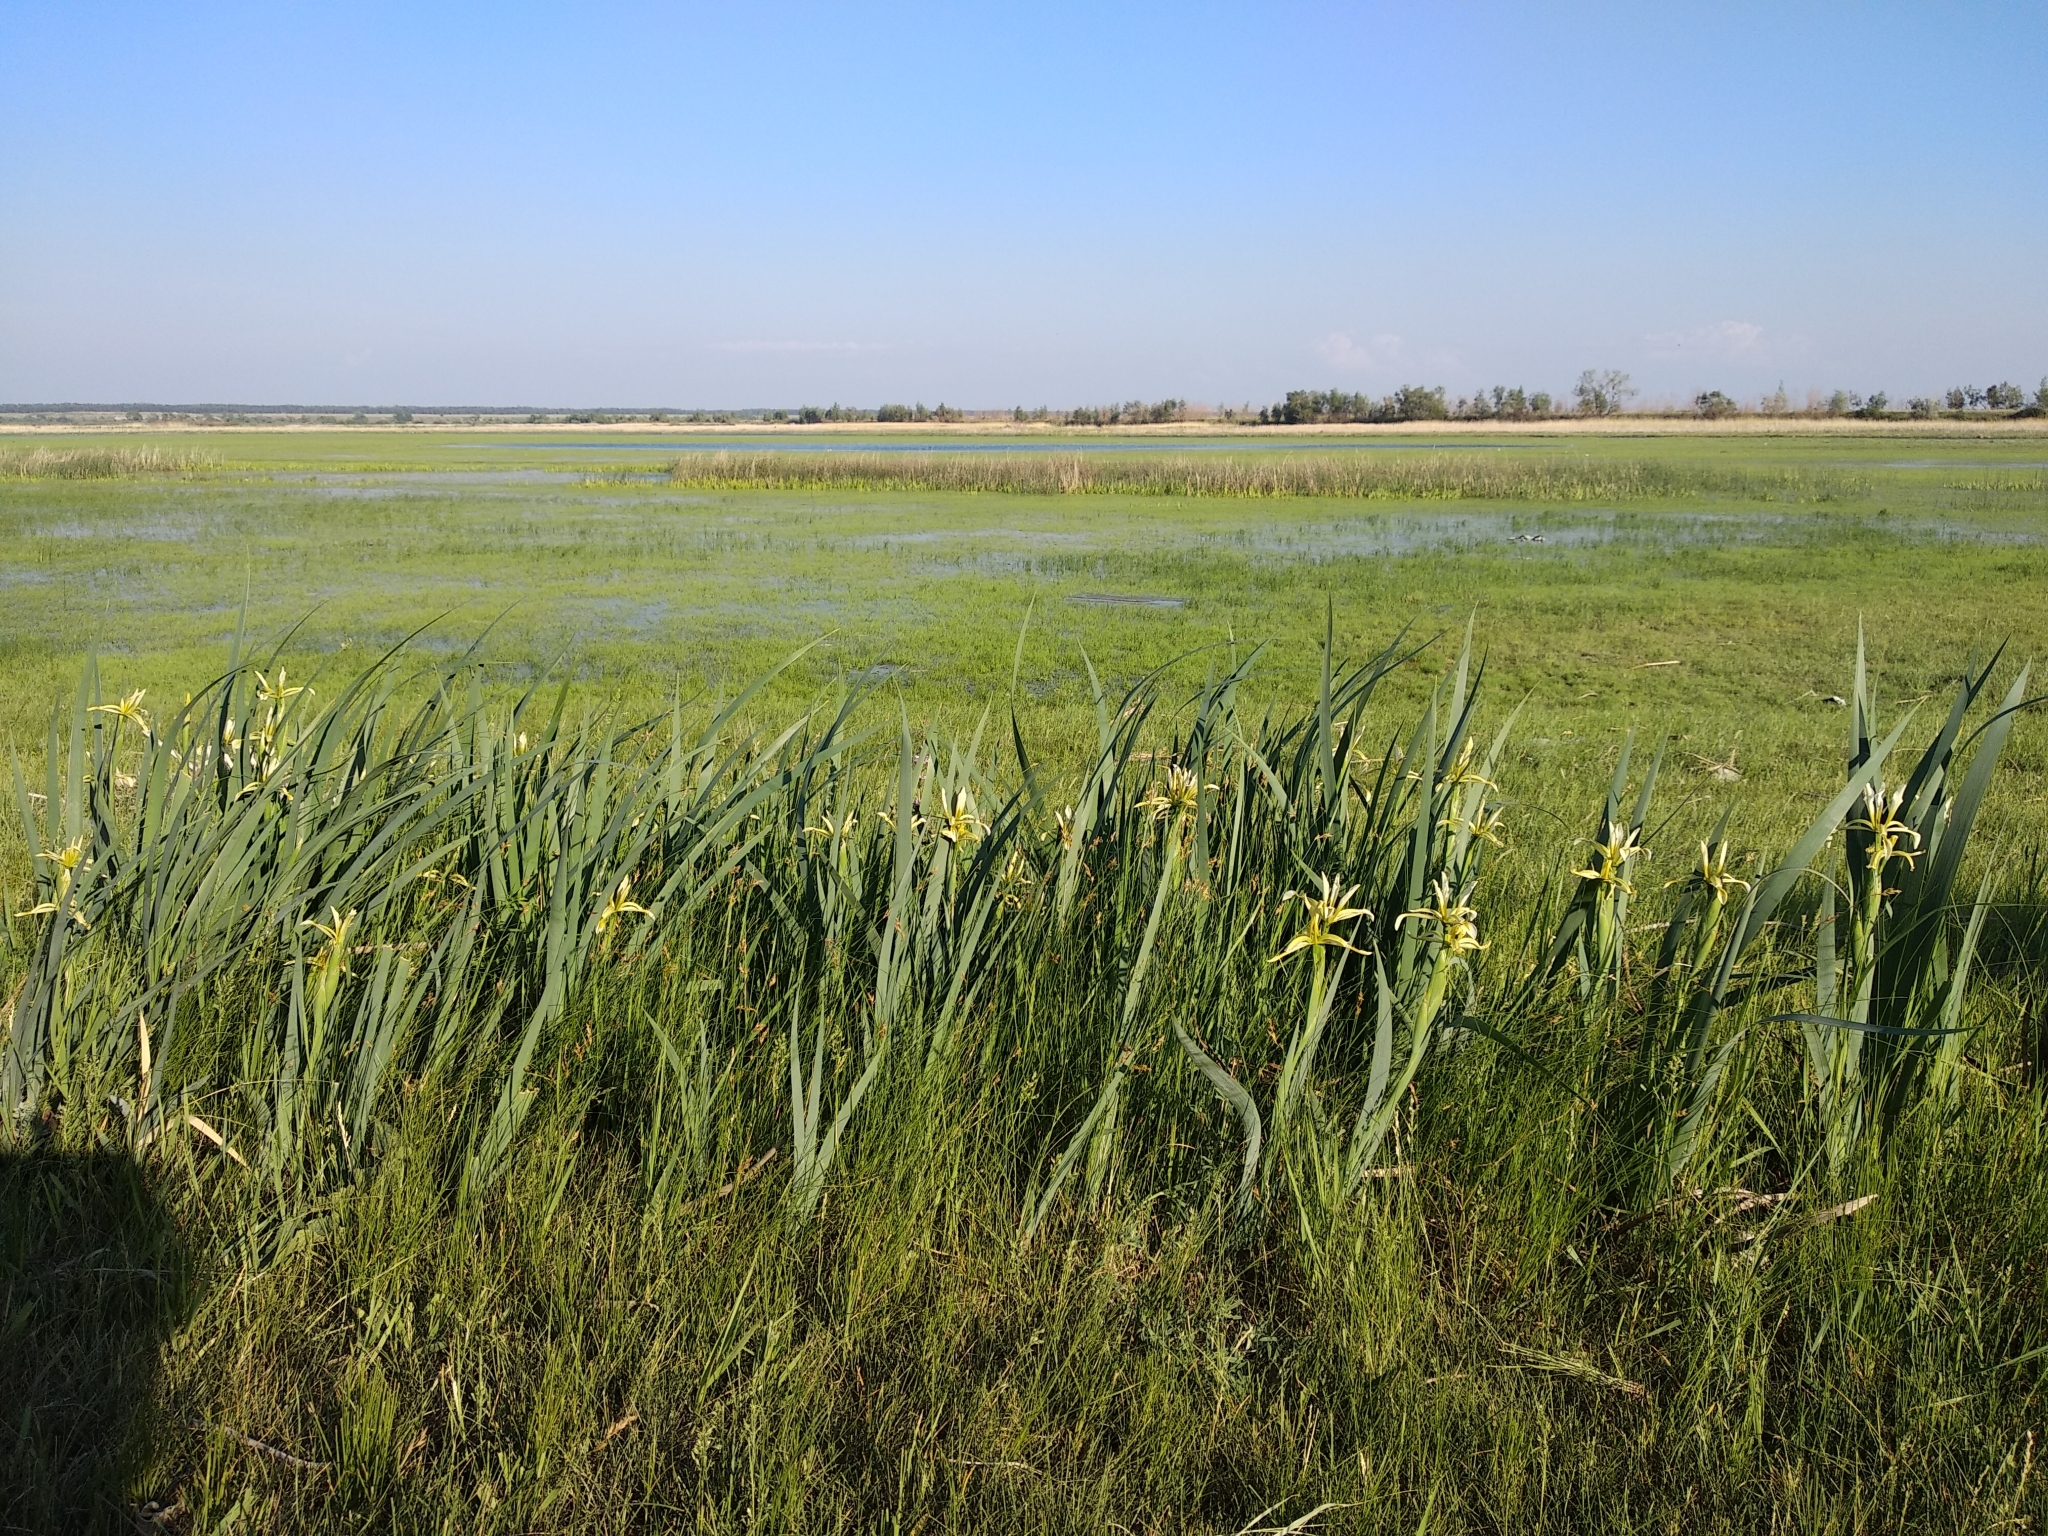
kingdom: Plantae
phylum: Tracheophyta
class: Liliopsida
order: Asparagales
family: Iridaceae
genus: Iris
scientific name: Iris halophila
